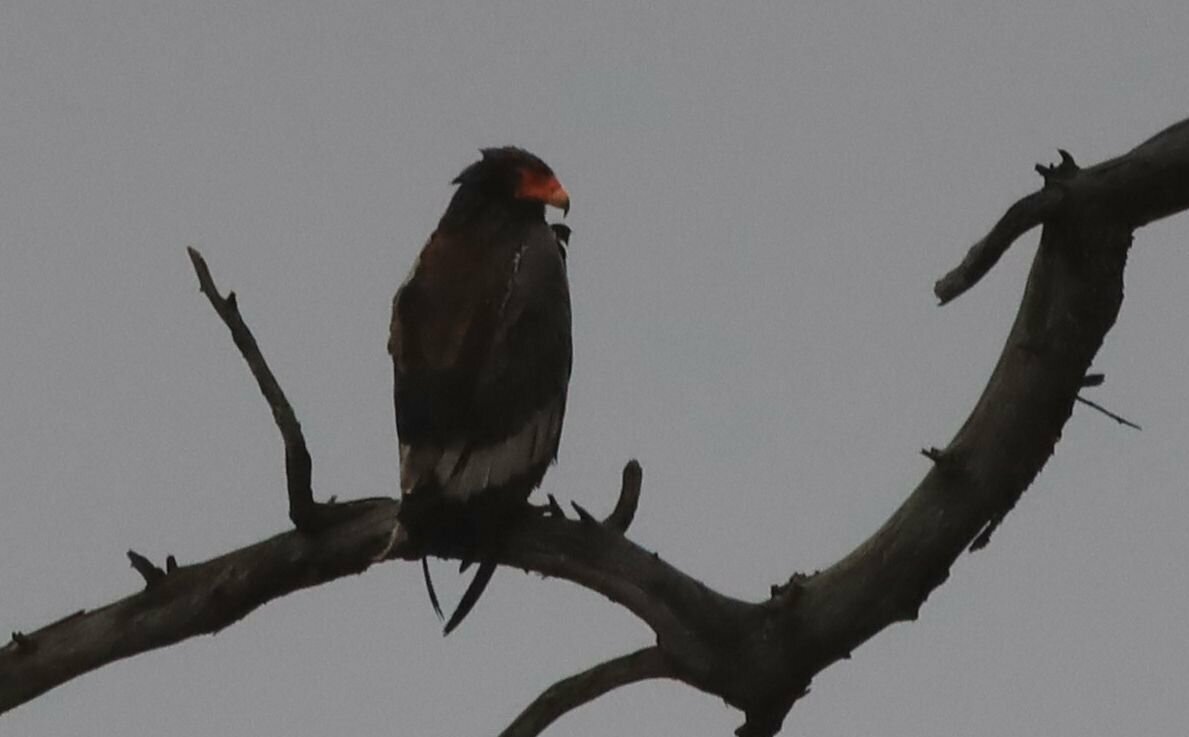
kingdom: Animalia
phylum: Chordata
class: Aves
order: Accipitriformes
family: Accipitridae
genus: Terathopius
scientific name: Terathopius ecaudatus
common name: Bateleur
